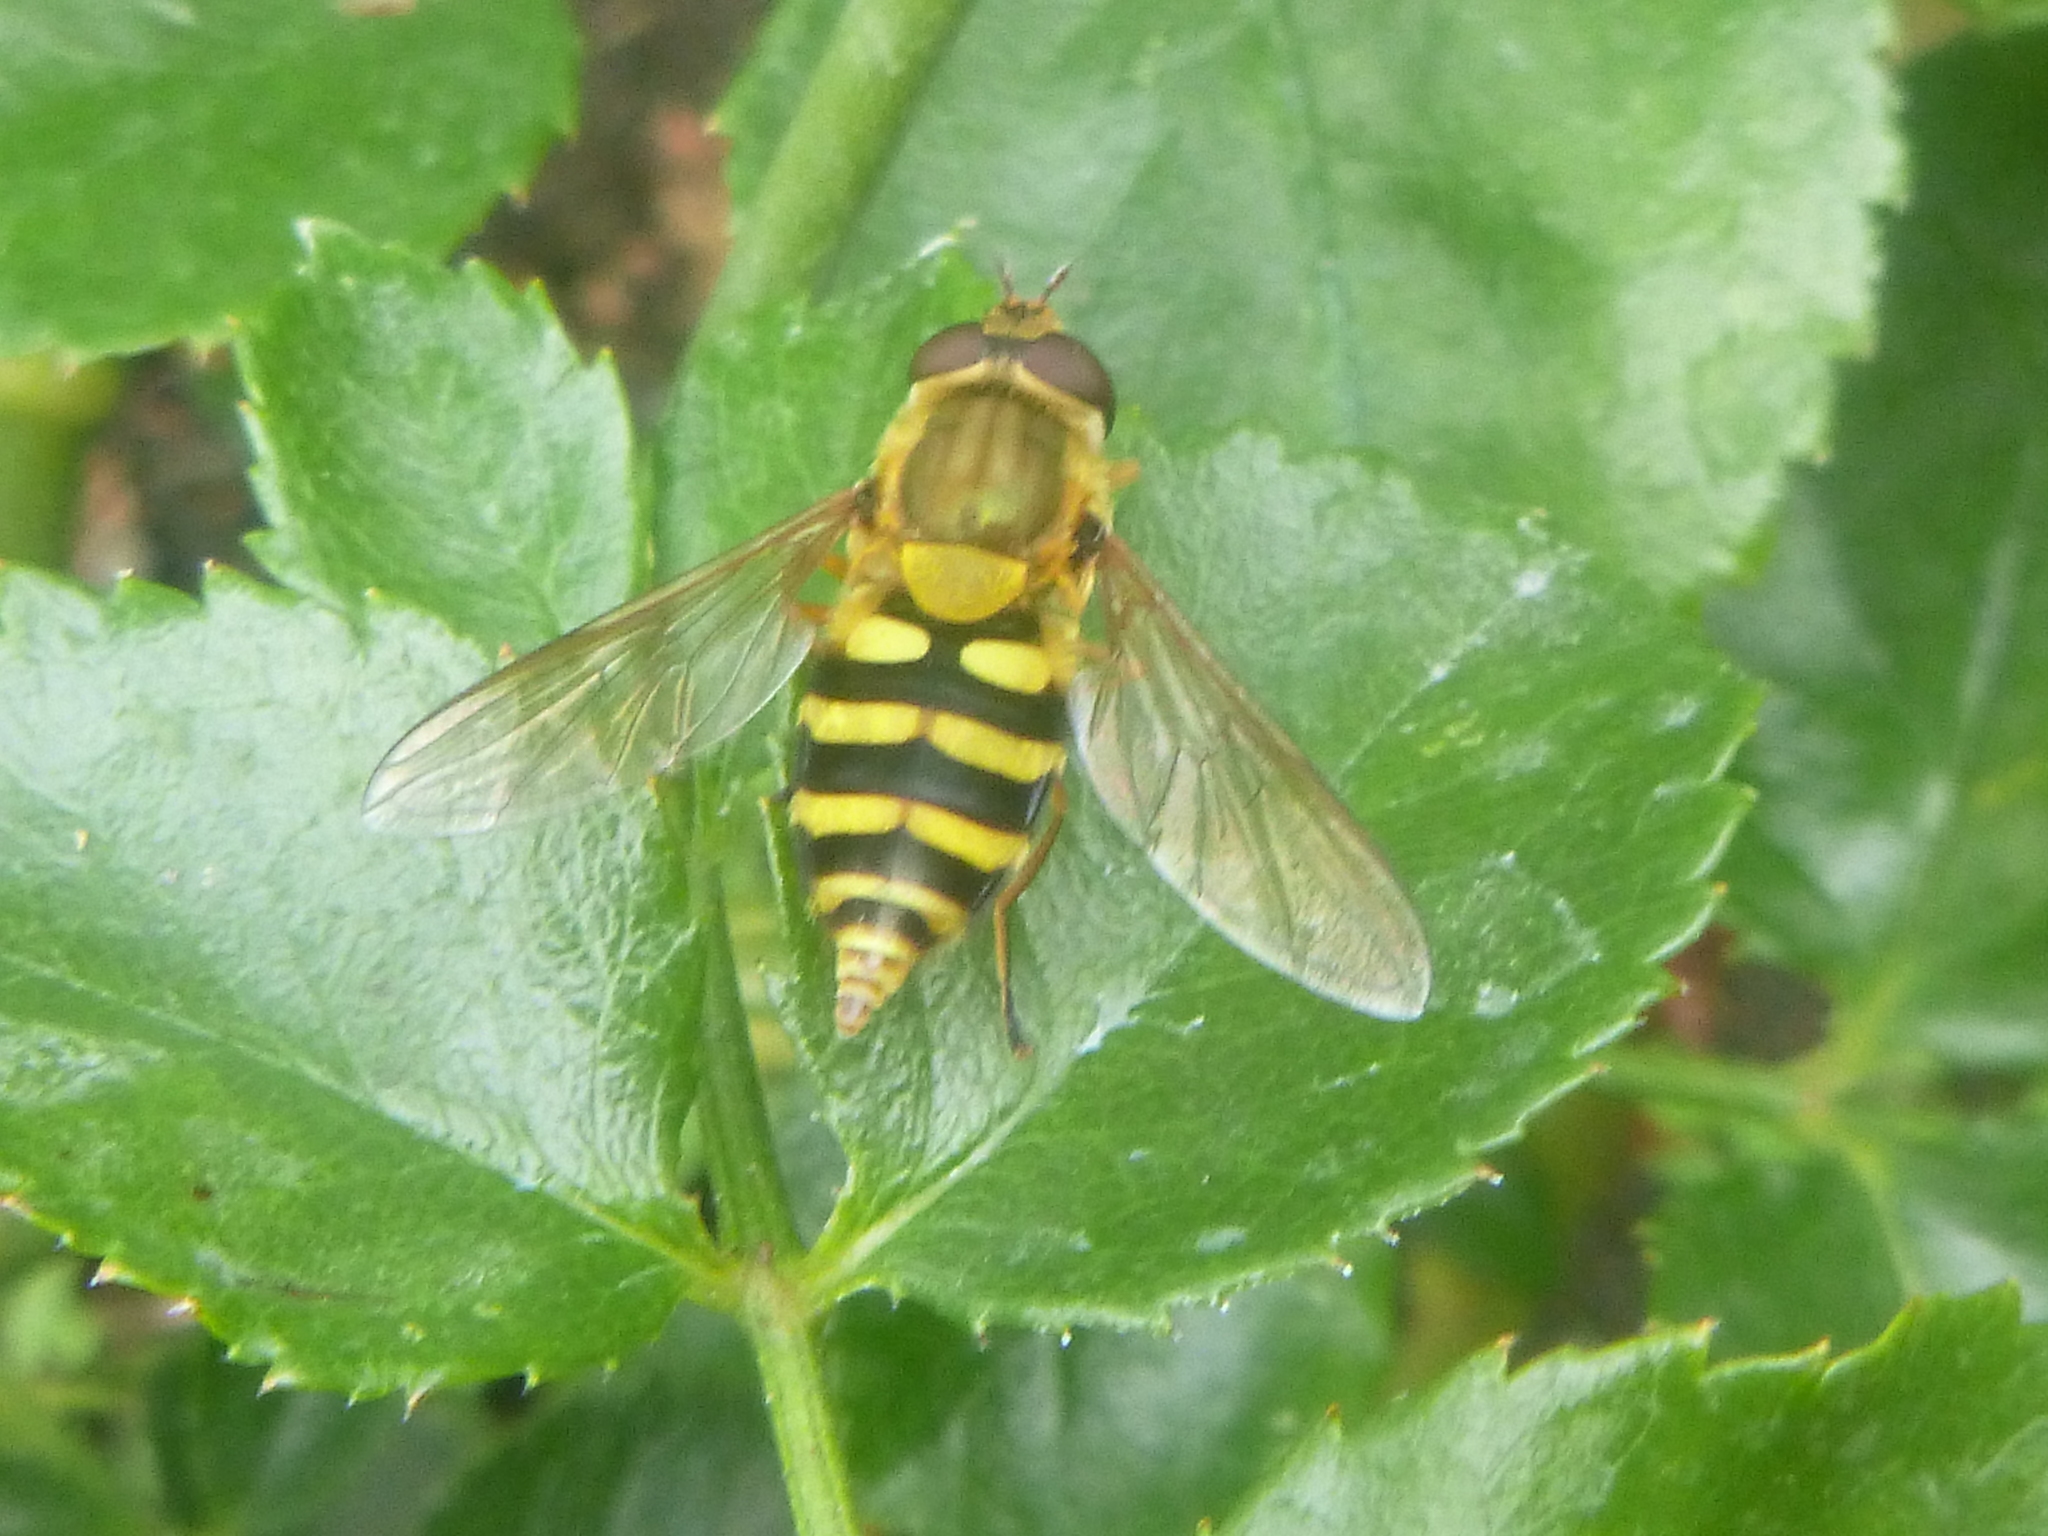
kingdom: Animalia
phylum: Arthropoda
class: Insecta
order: Diptera
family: Syrphidae
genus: Syrphus
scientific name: Syrphus ribesii
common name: Common flower fly
